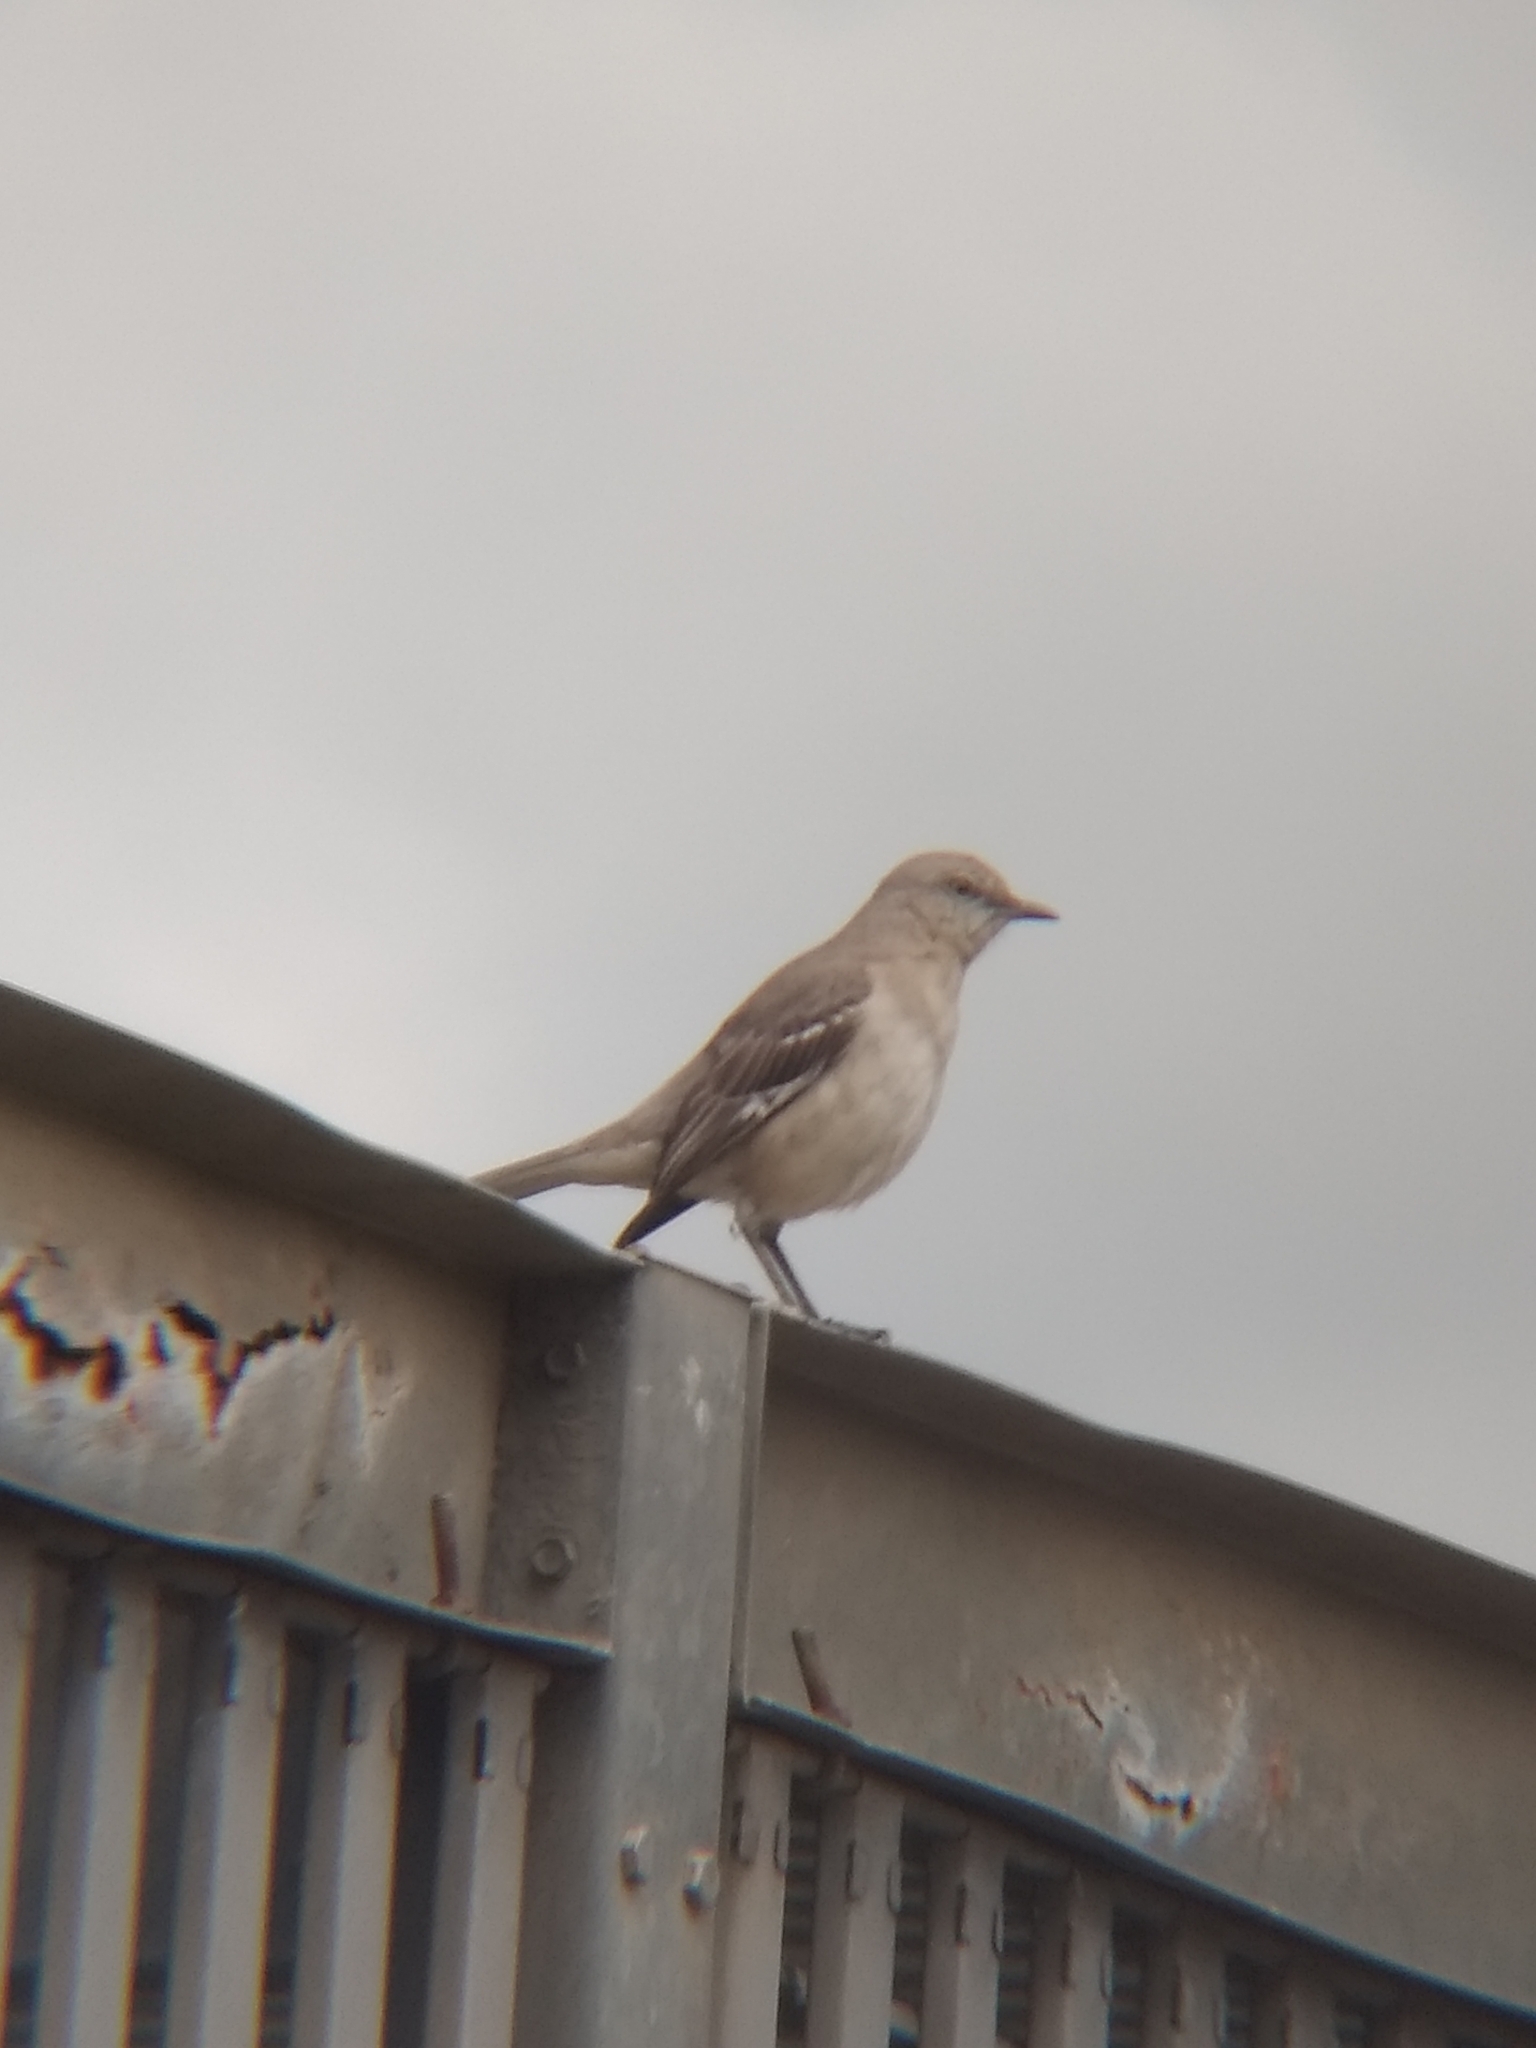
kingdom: Animalia
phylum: Chordata
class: Aves
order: Passeriformes
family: Mimidae
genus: Mimus
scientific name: Mimus polyglottos
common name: Northern mockingbird
